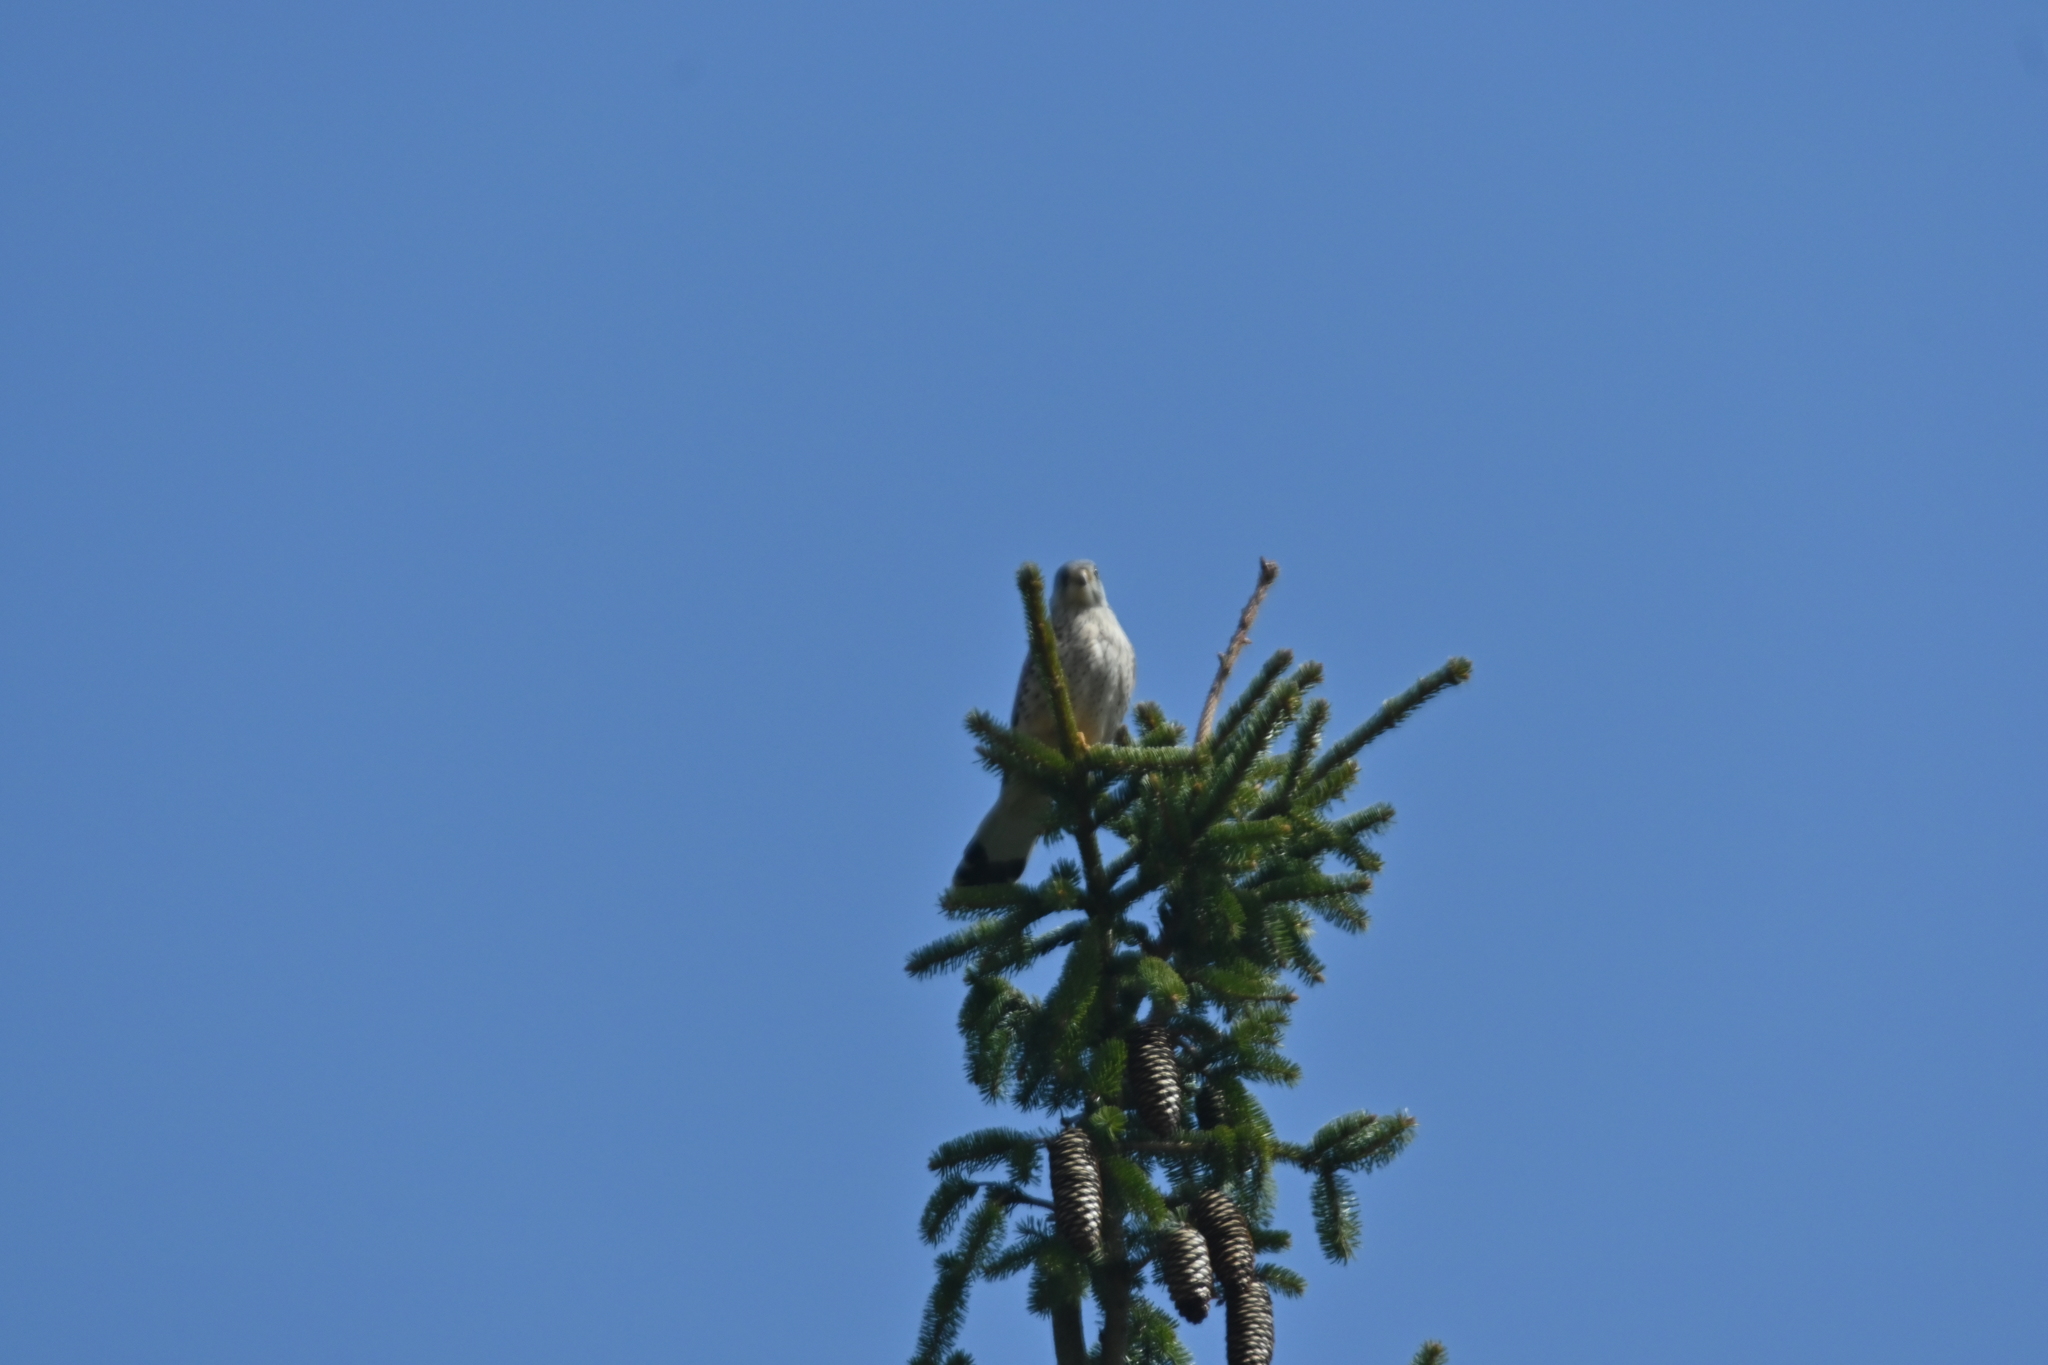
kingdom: Animalia
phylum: Chordata
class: Aves
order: Falconiformes
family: Falconidae
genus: Falco
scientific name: Falco tinnunculus
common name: Common kestrel
